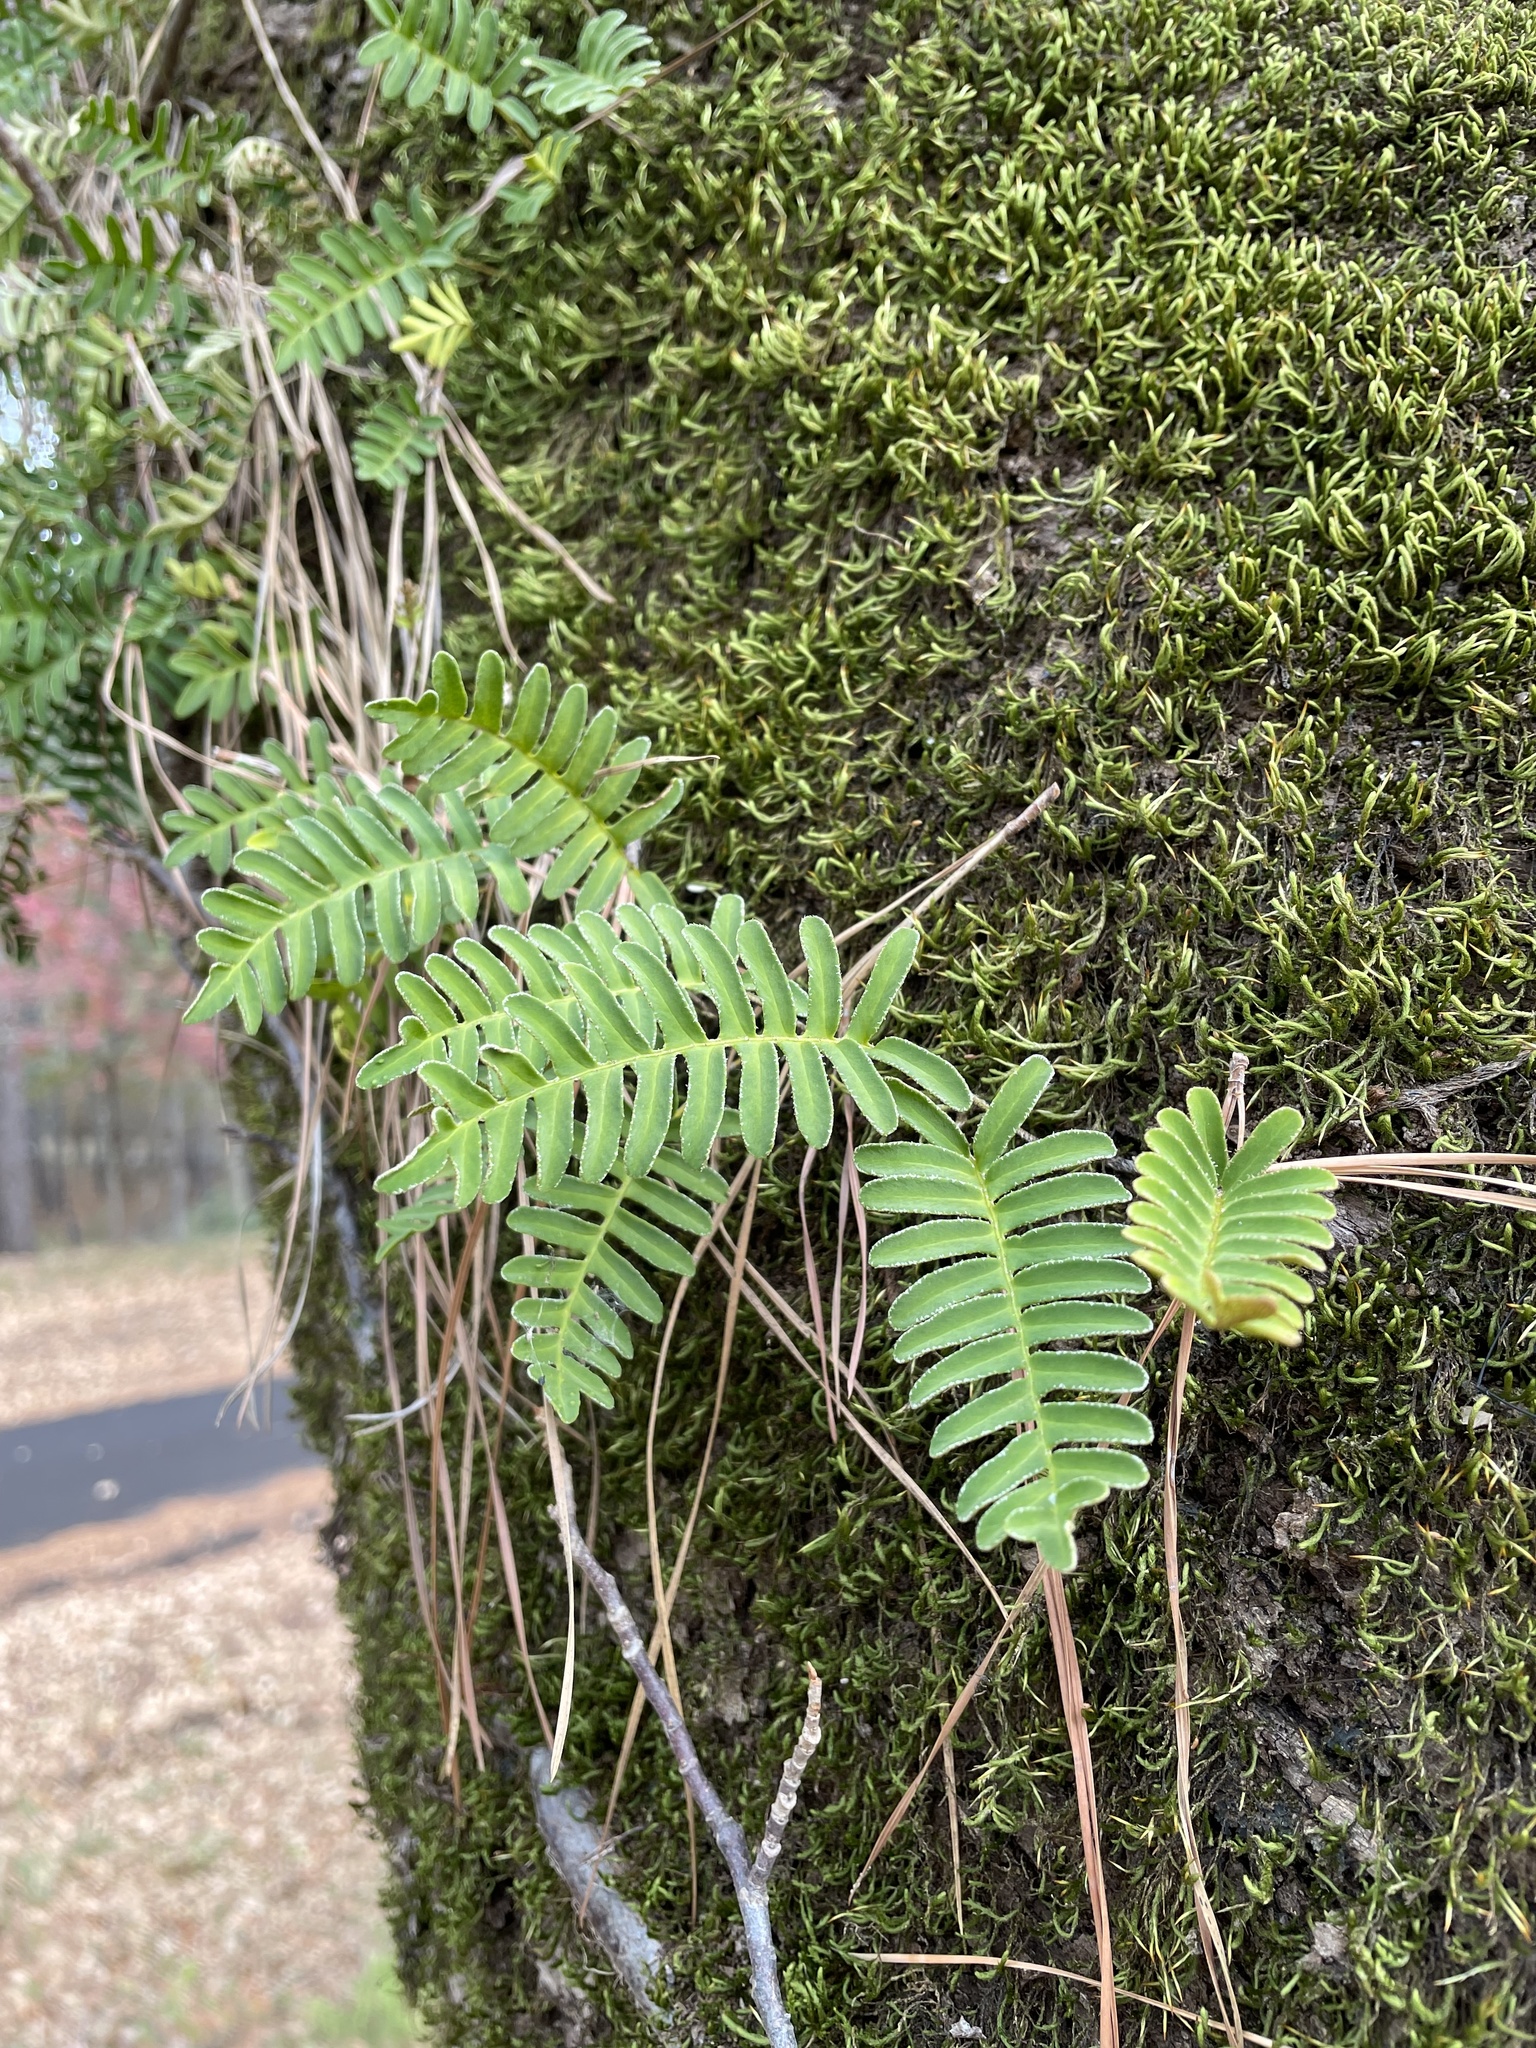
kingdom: Plantae
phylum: Tracheophyta
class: Polypodiopsida
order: Polypodiales
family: Polypodiaceae
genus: Pleopeltis
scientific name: Pleopeltis michauxiana
